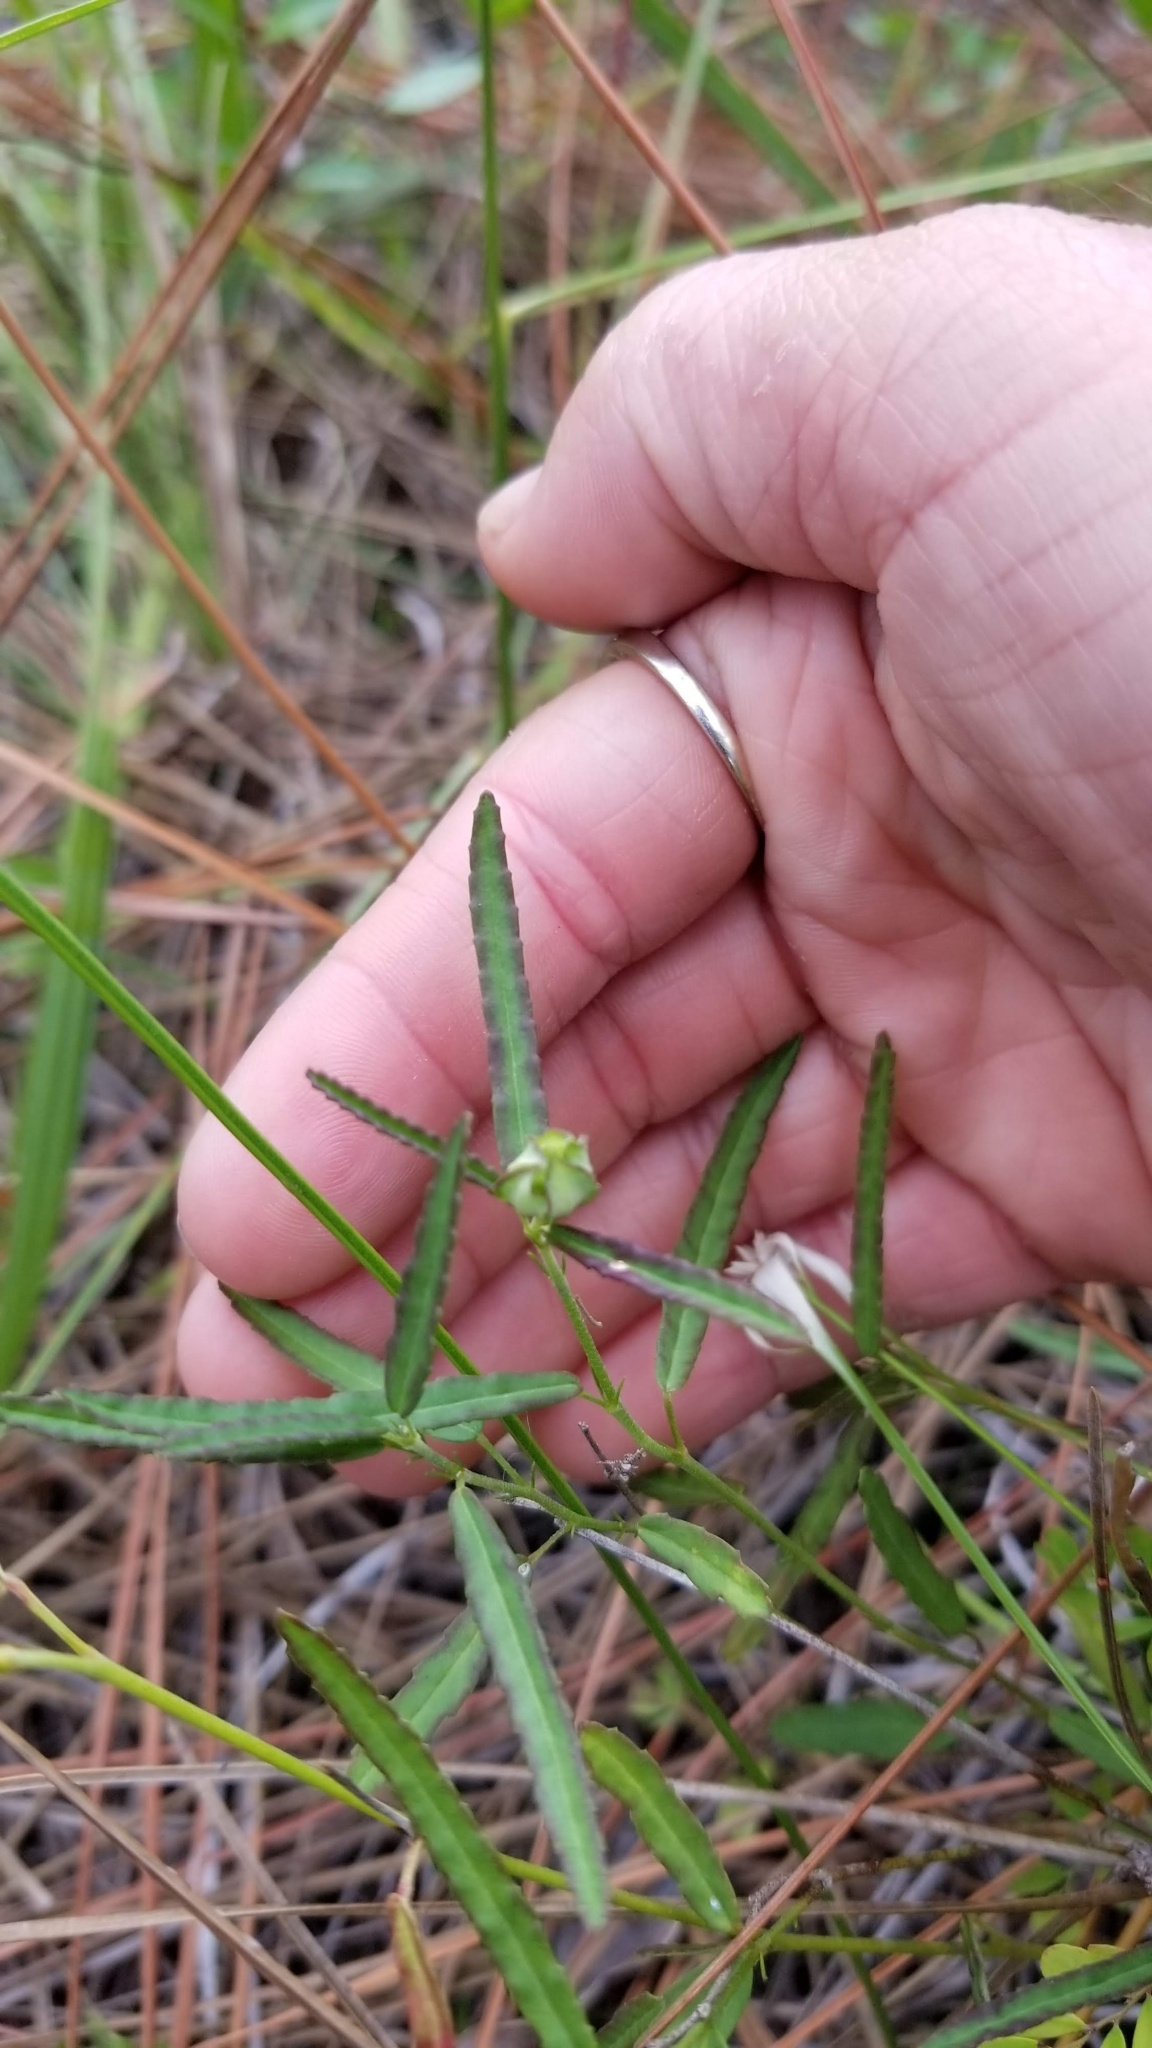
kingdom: Plantae
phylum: Tracheophyta
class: Magnoliopsida
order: Malvales
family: Malvaceae
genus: Sida
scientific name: Sida elliottii
